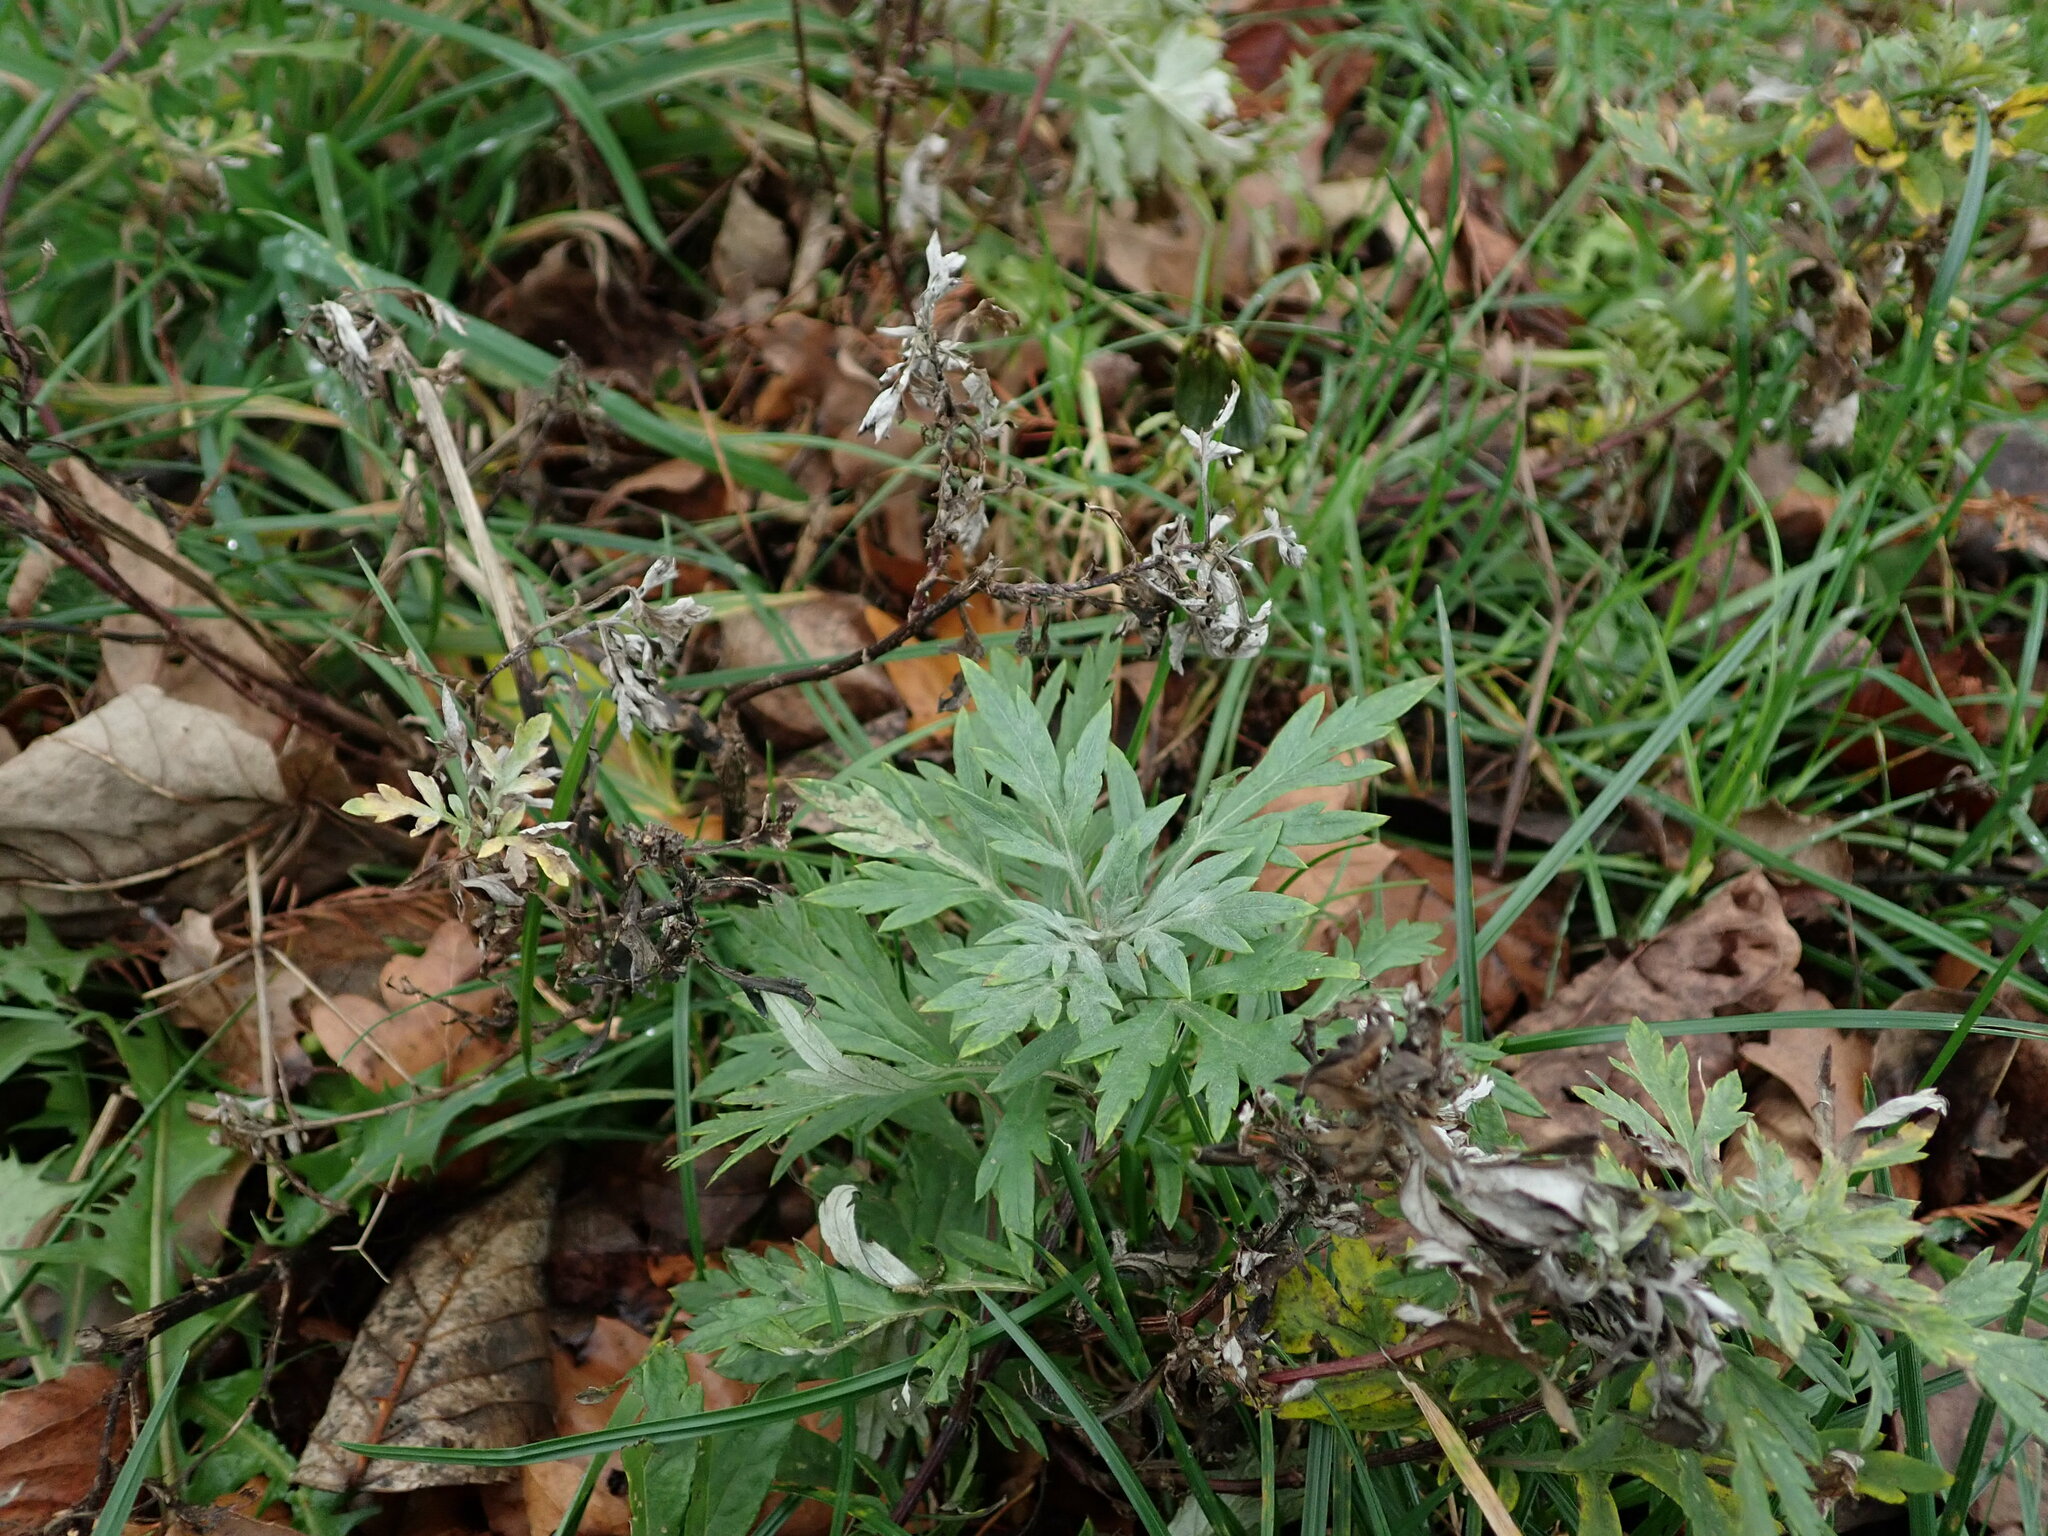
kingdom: Plantae
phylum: Tracheophyta
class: Magnoliopsida
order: Asterales
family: Asteraceae
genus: Artemisia
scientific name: Artemisia vulgaris
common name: Mugwort
